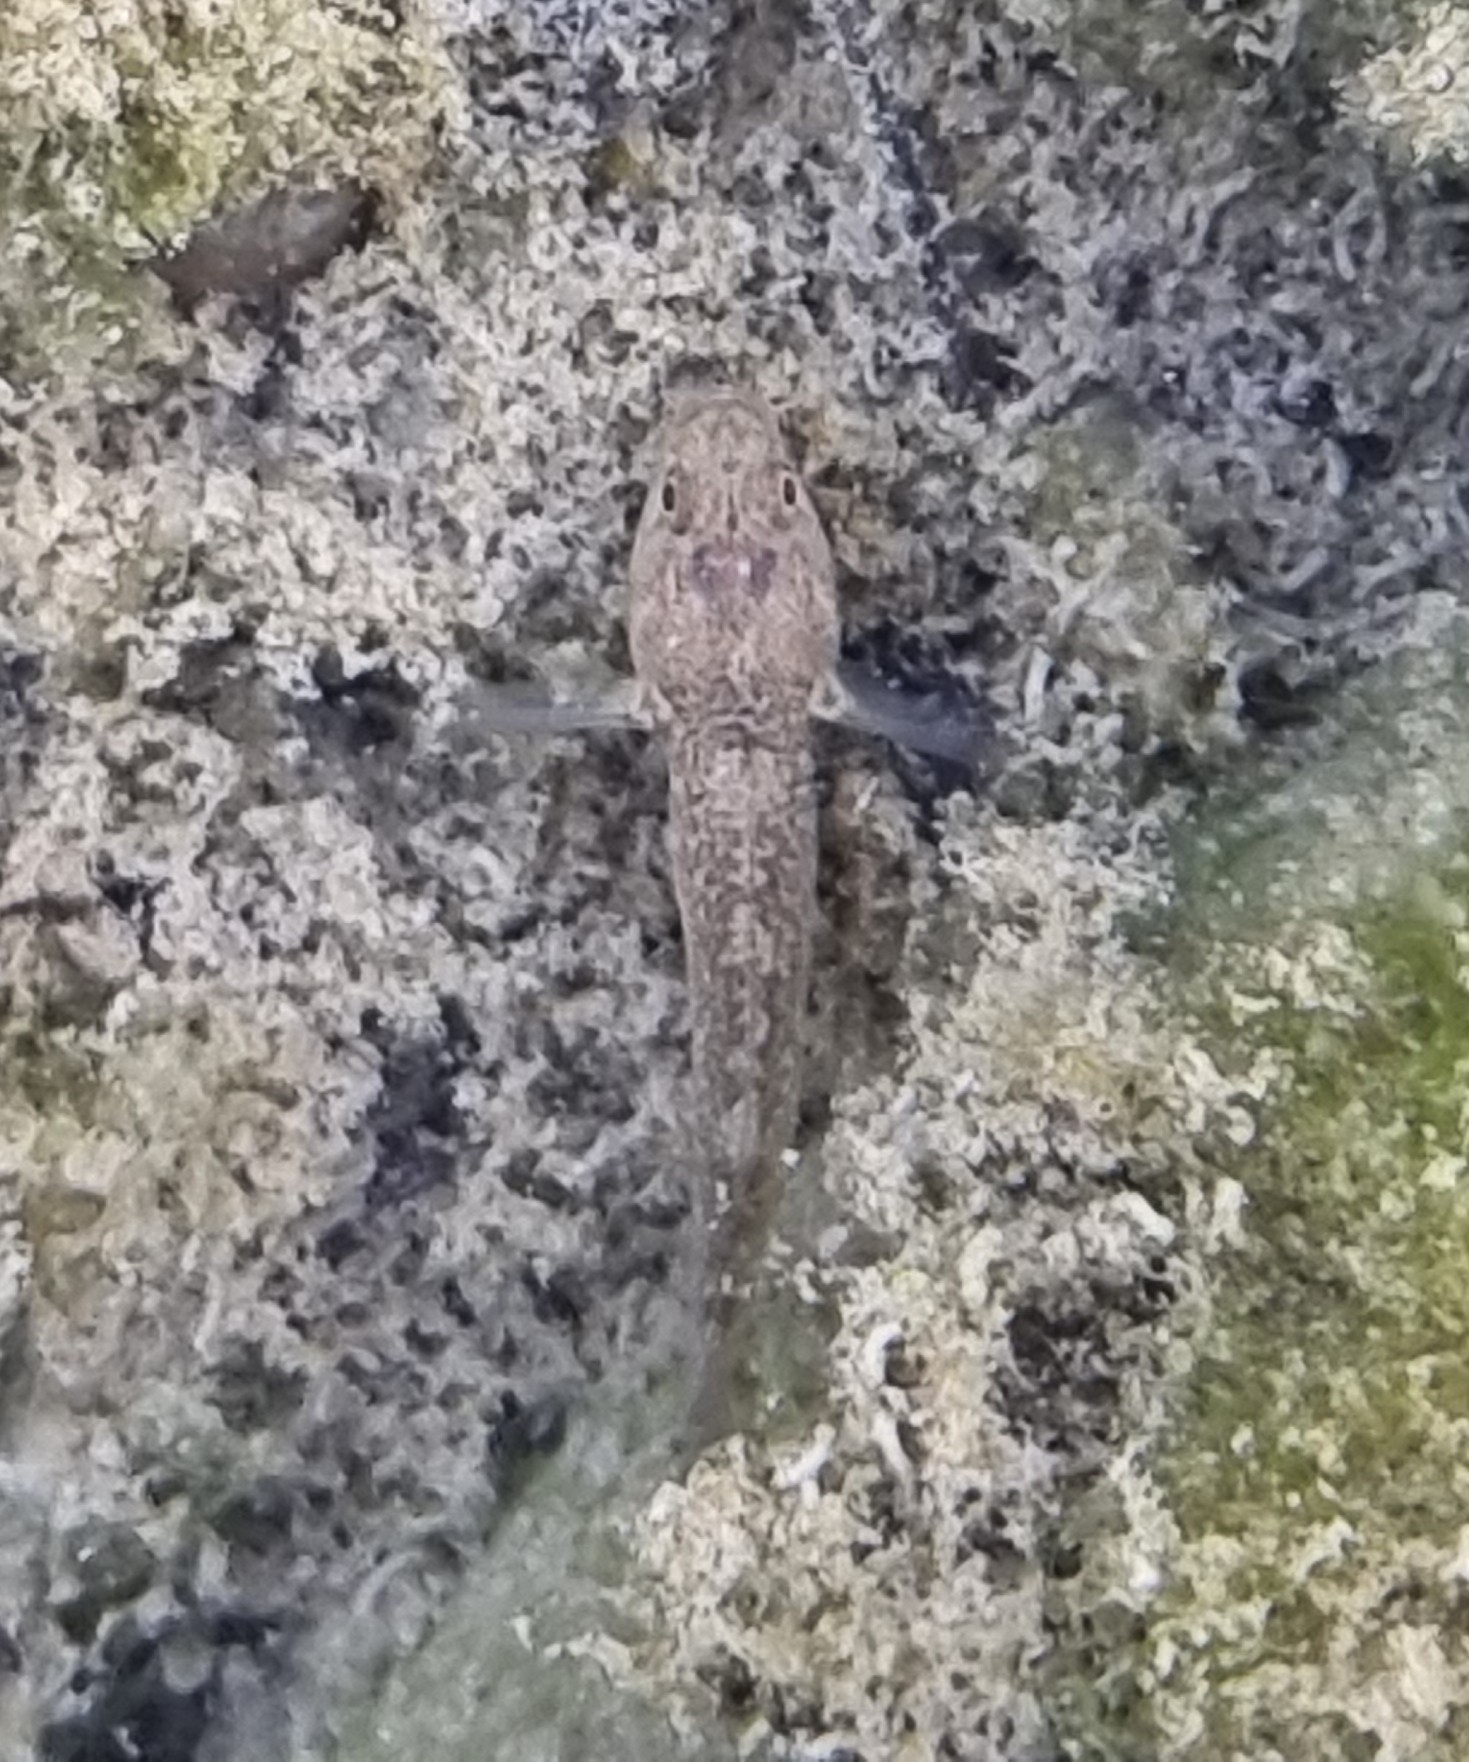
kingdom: Animalia
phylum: Chordata
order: Perciformes
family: Gobiidae
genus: Padogobius
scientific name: Padogobius bonelli
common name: Padanian goby
